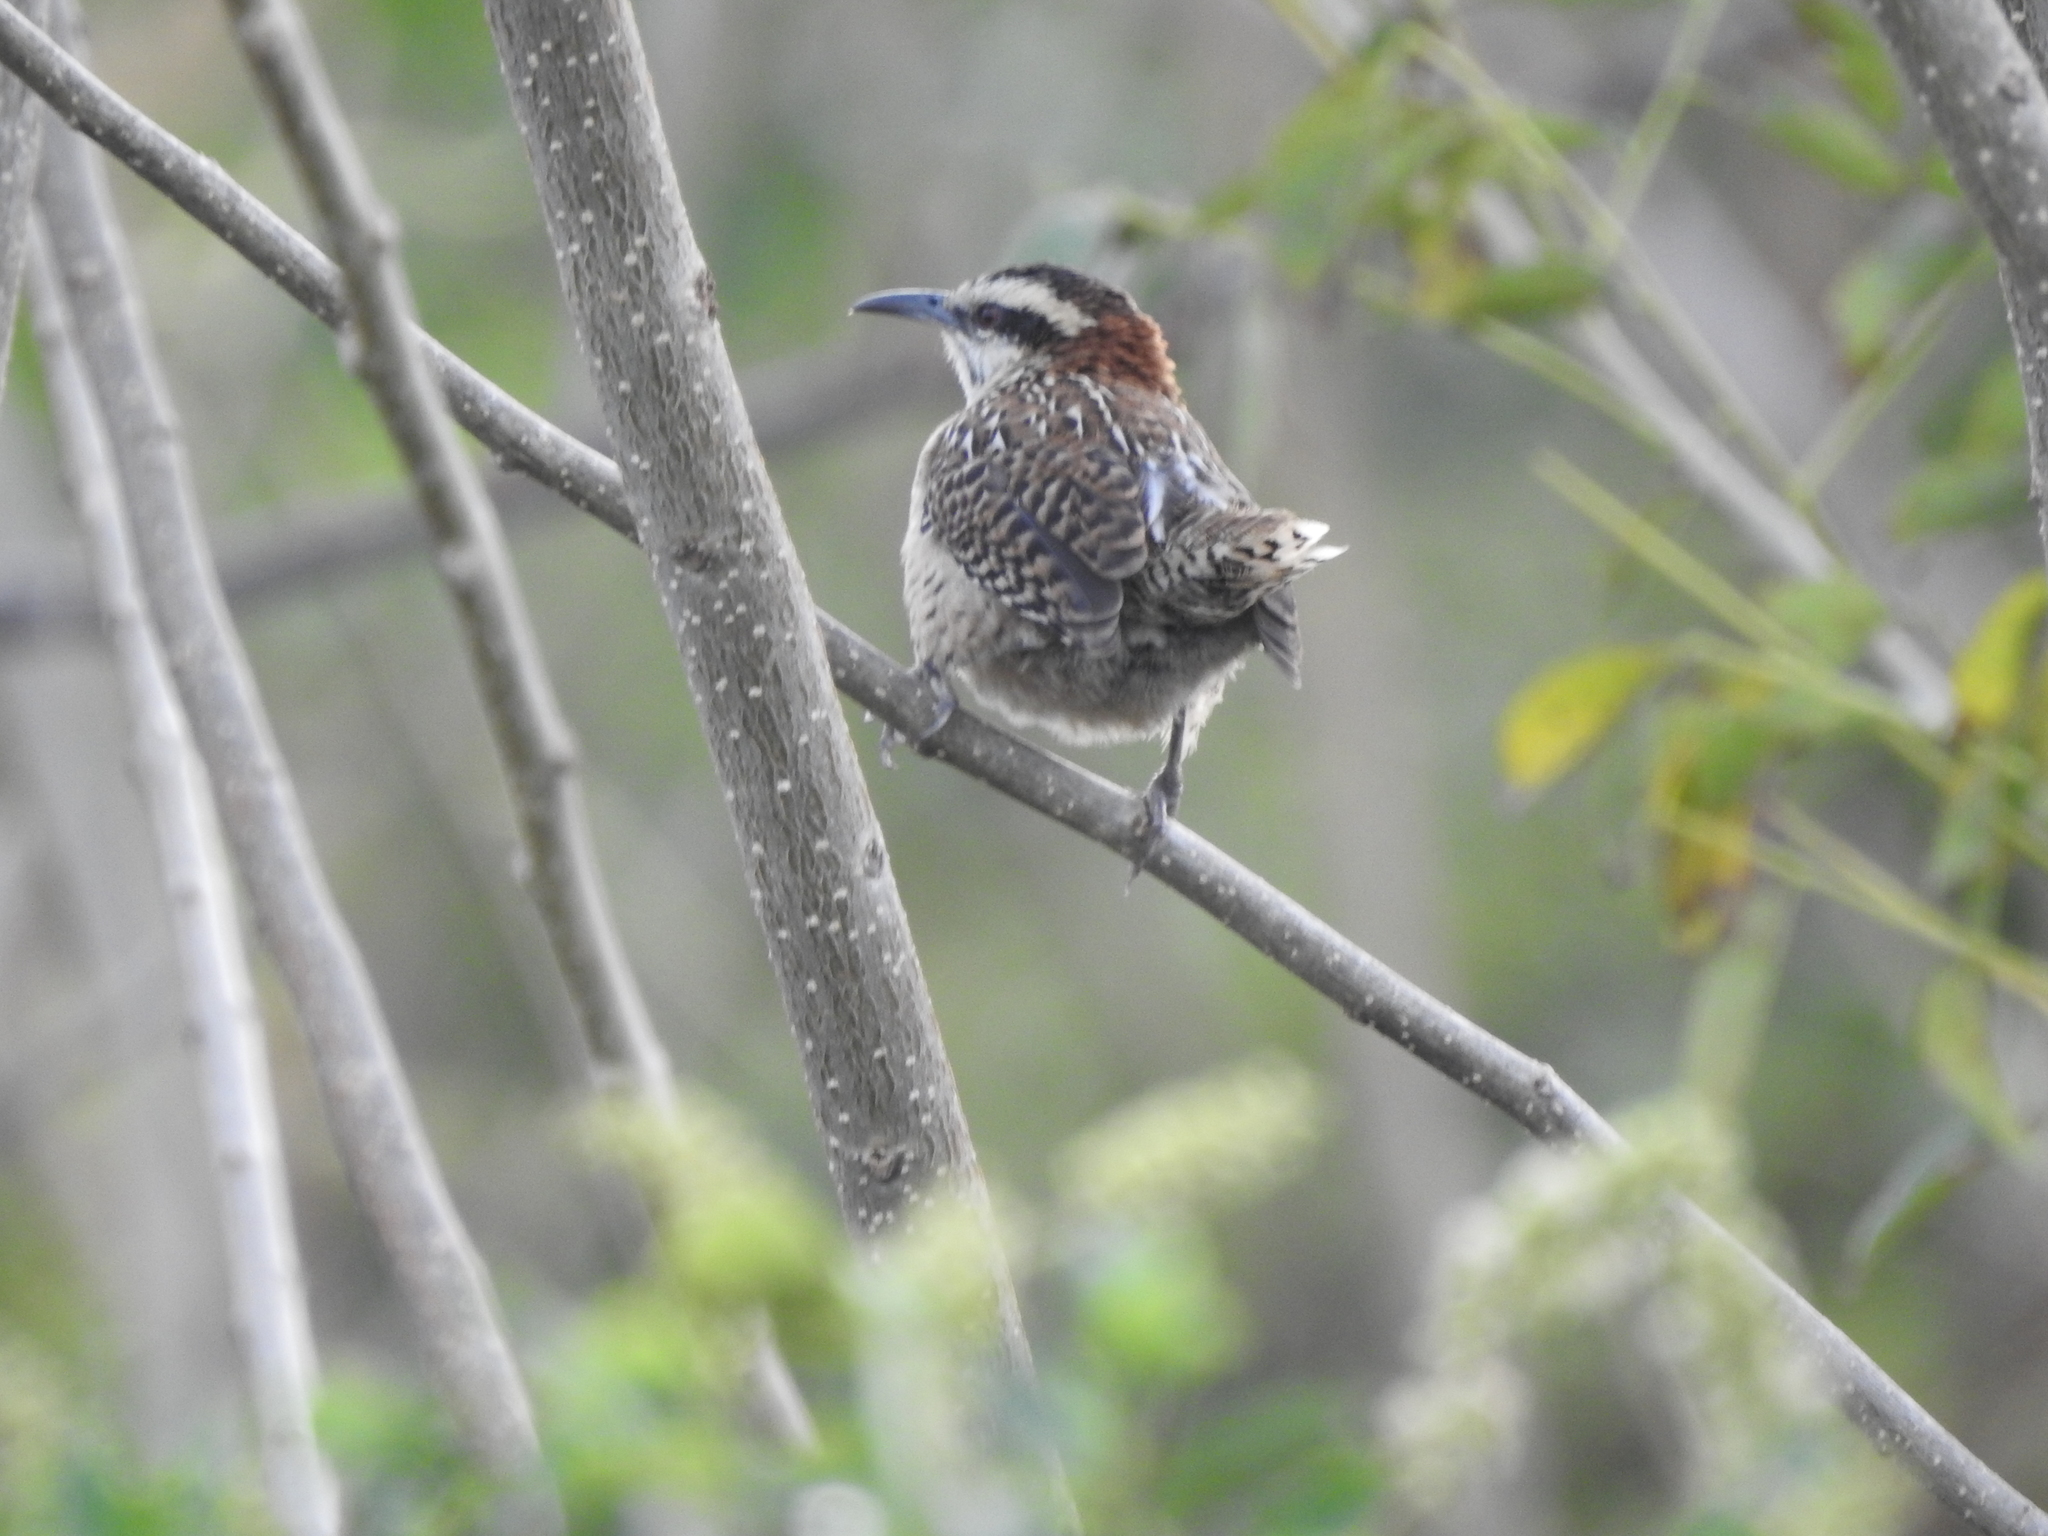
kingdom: Animalia
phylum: Chordata
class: Aves
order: Passeriformes
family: Troglodytidae
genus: Campylorhynchus
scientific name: Campylorhynchus rufinucha
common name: Rufous-naped wren
